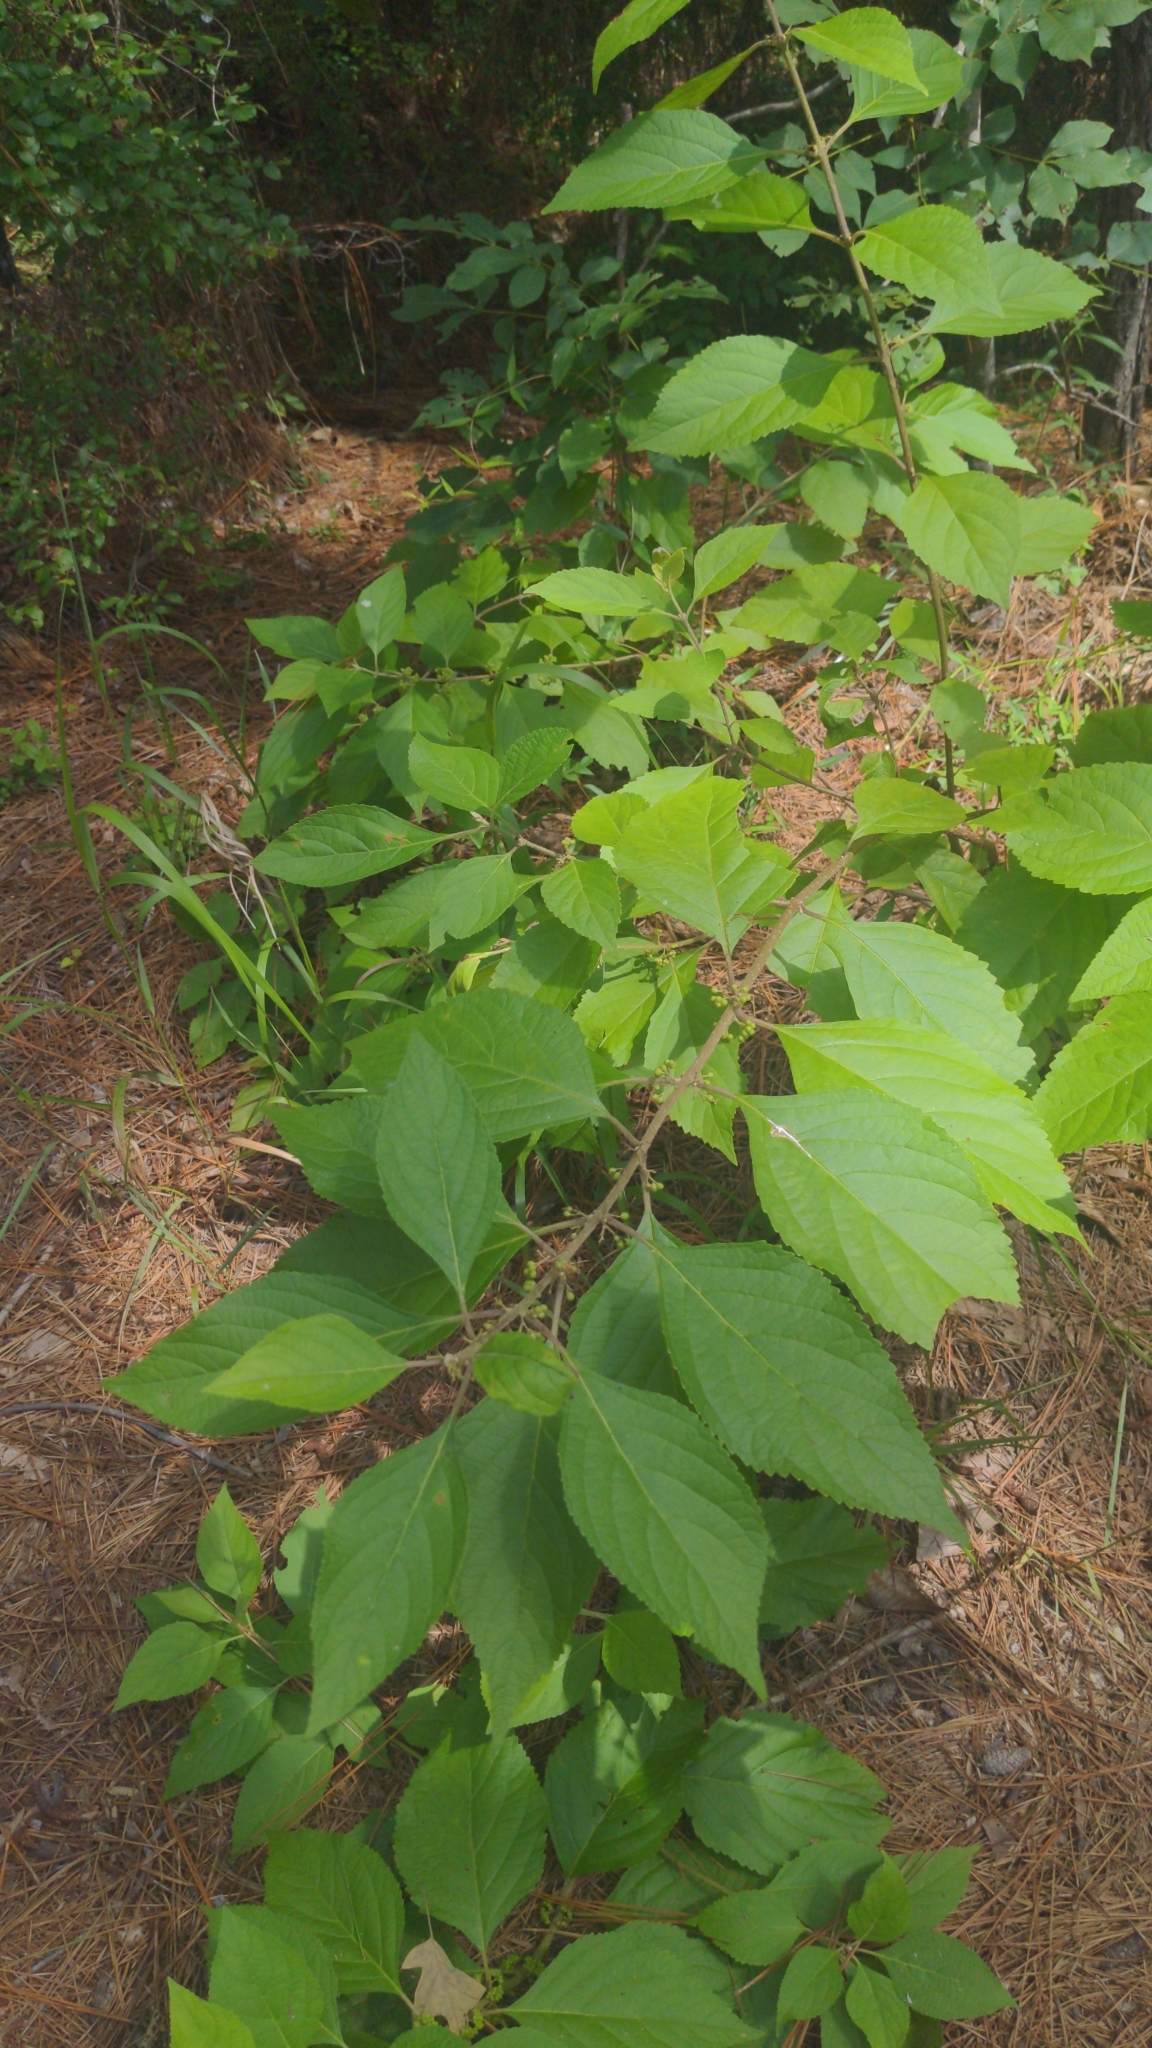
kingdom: Plantae
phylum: Tracheophyta
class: Magnoliopsida
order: Lamiales
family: Lamiaceae
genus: Callicarpa
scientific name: Callicarpa americana
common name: American beautyberry
